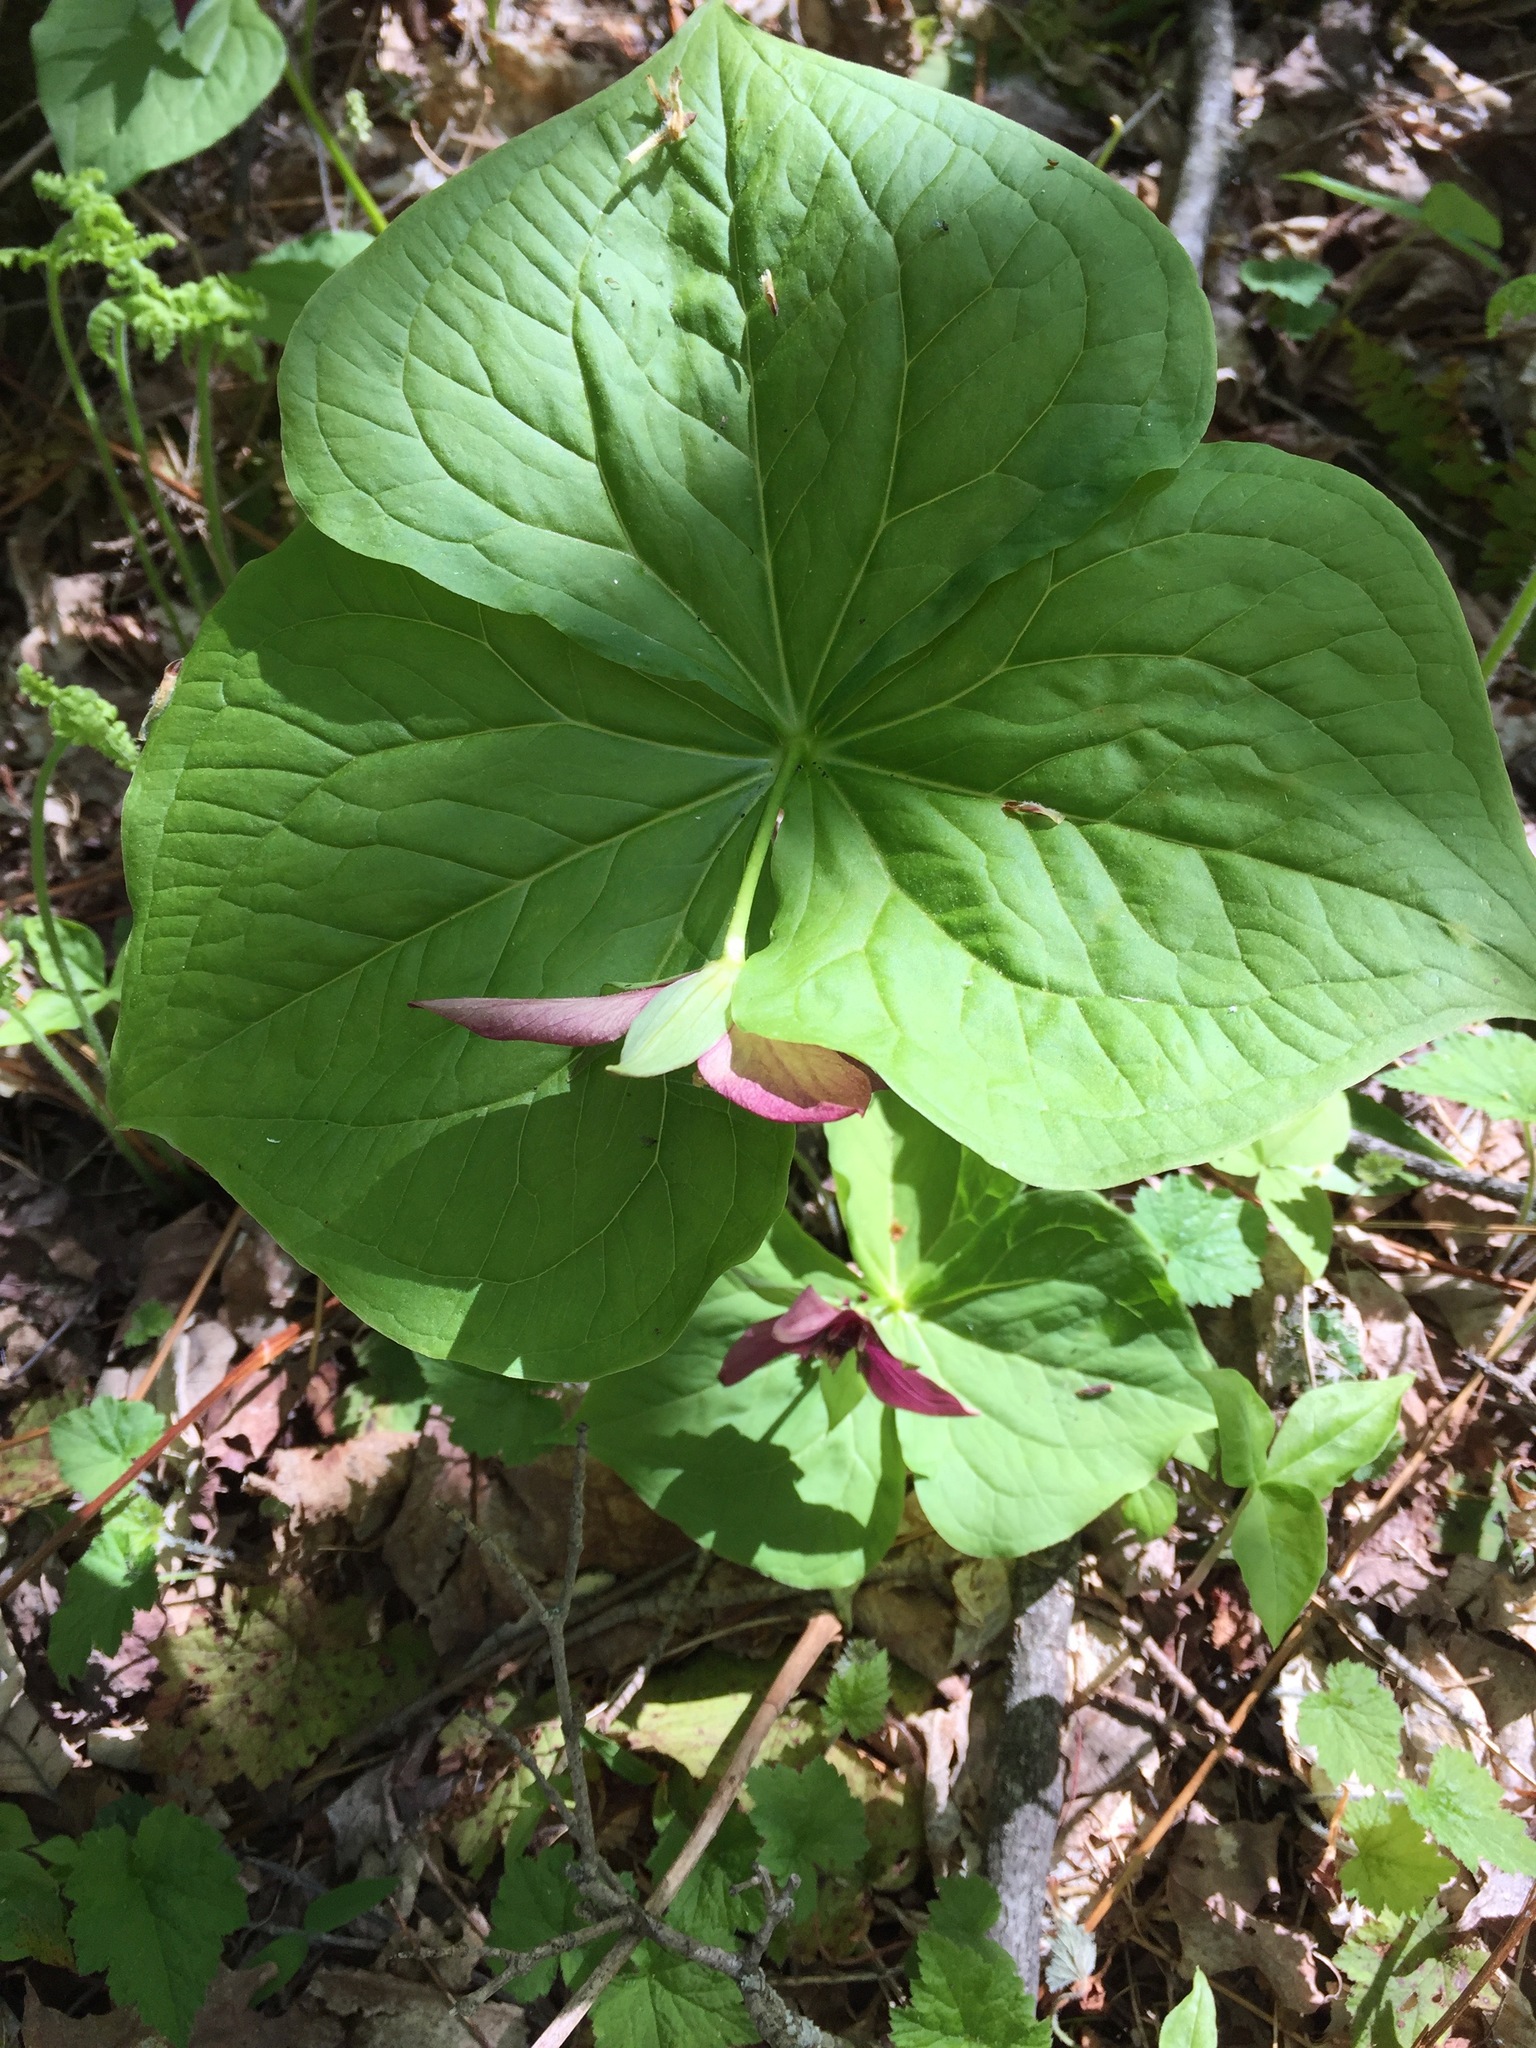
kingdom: Plantae
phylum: Tracheophyta
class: Liliopsida
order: Liliales
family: Melanthiaceae
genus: Trillium
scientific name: Trillium erectum
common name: Purple trillium
